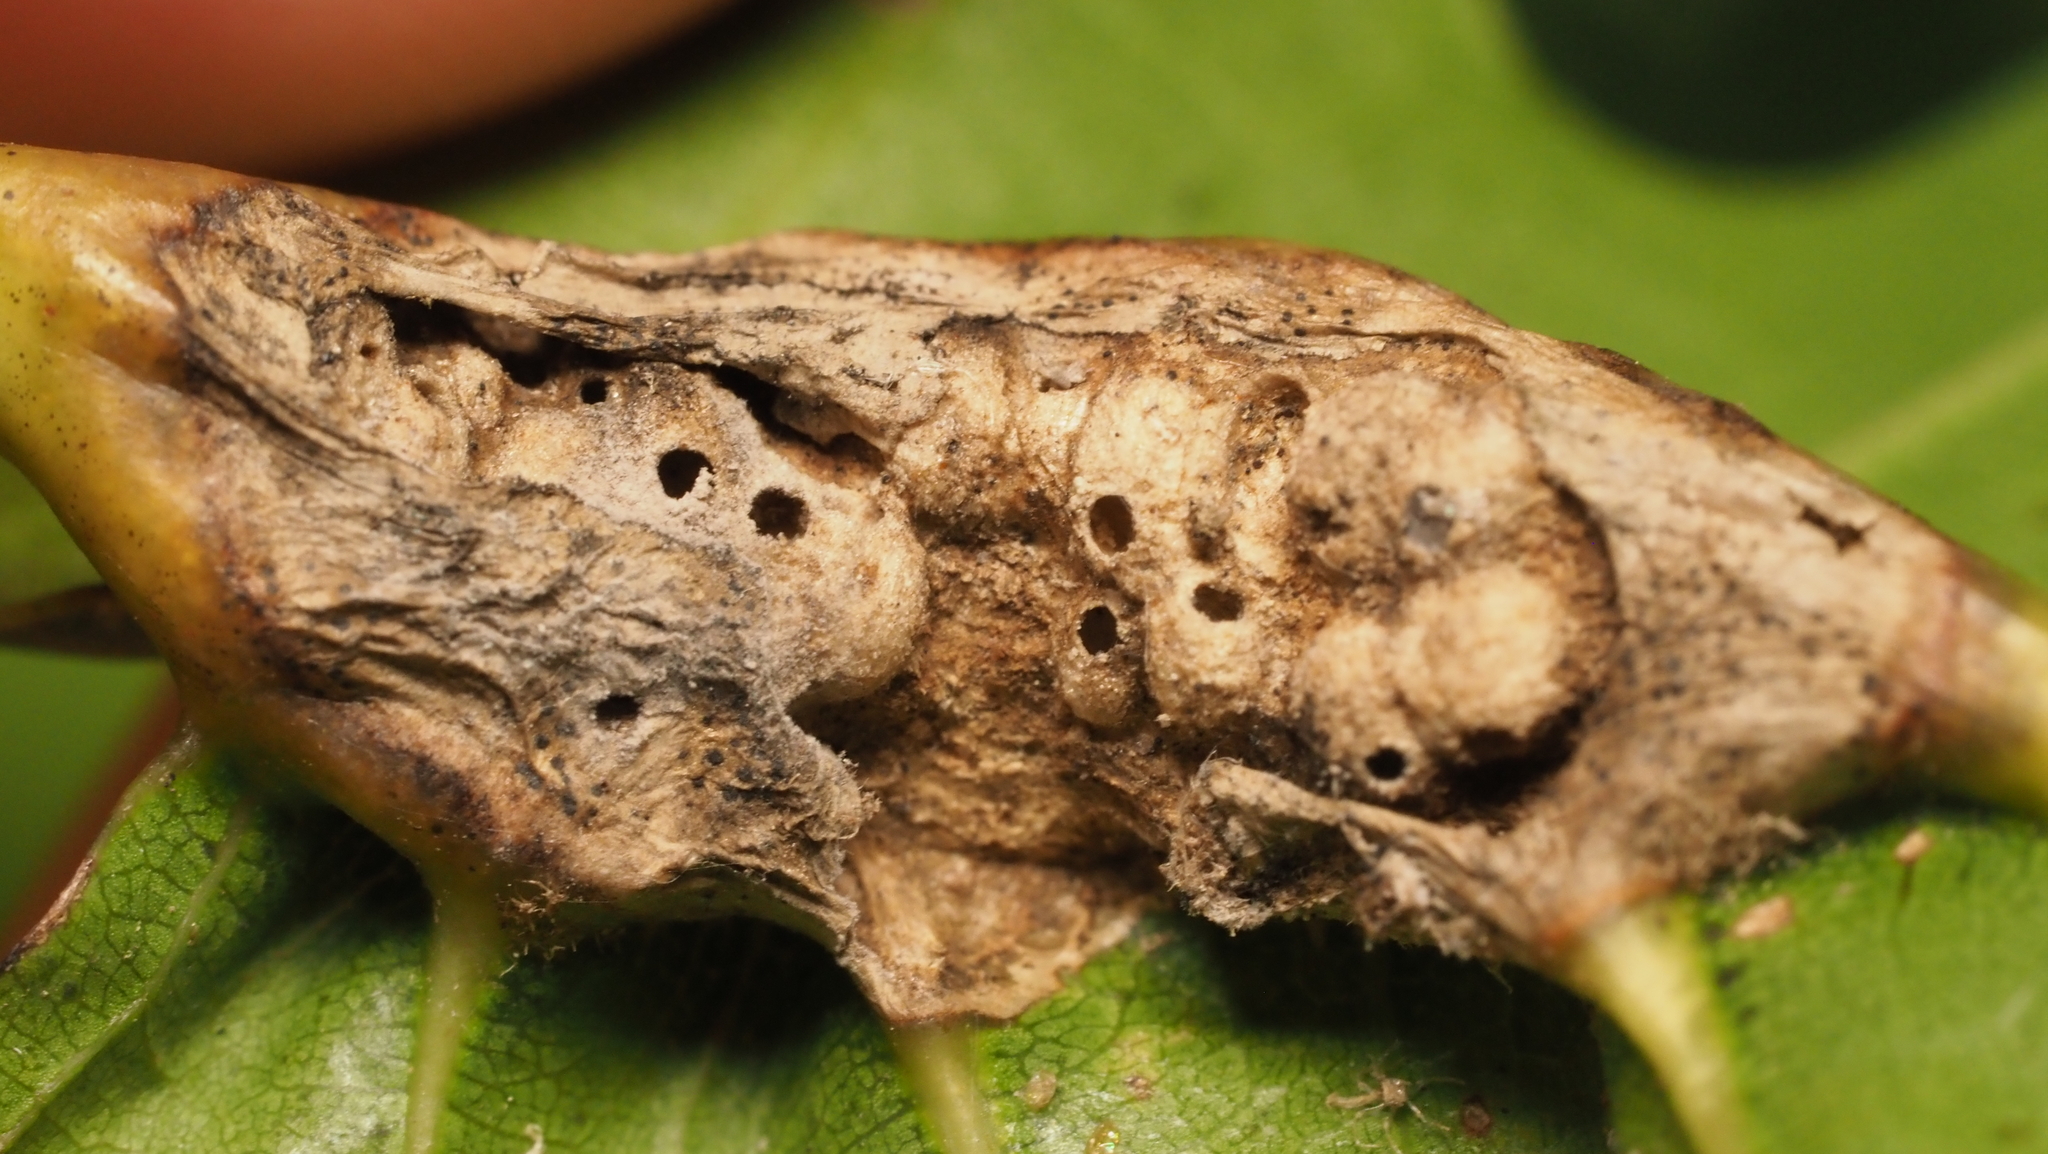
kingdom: Animalia
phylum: Arthropoda
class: Insecta
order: Hymenoptera
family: Cynipidae
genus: Melikaiella
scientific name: Melikaiella tumifica
